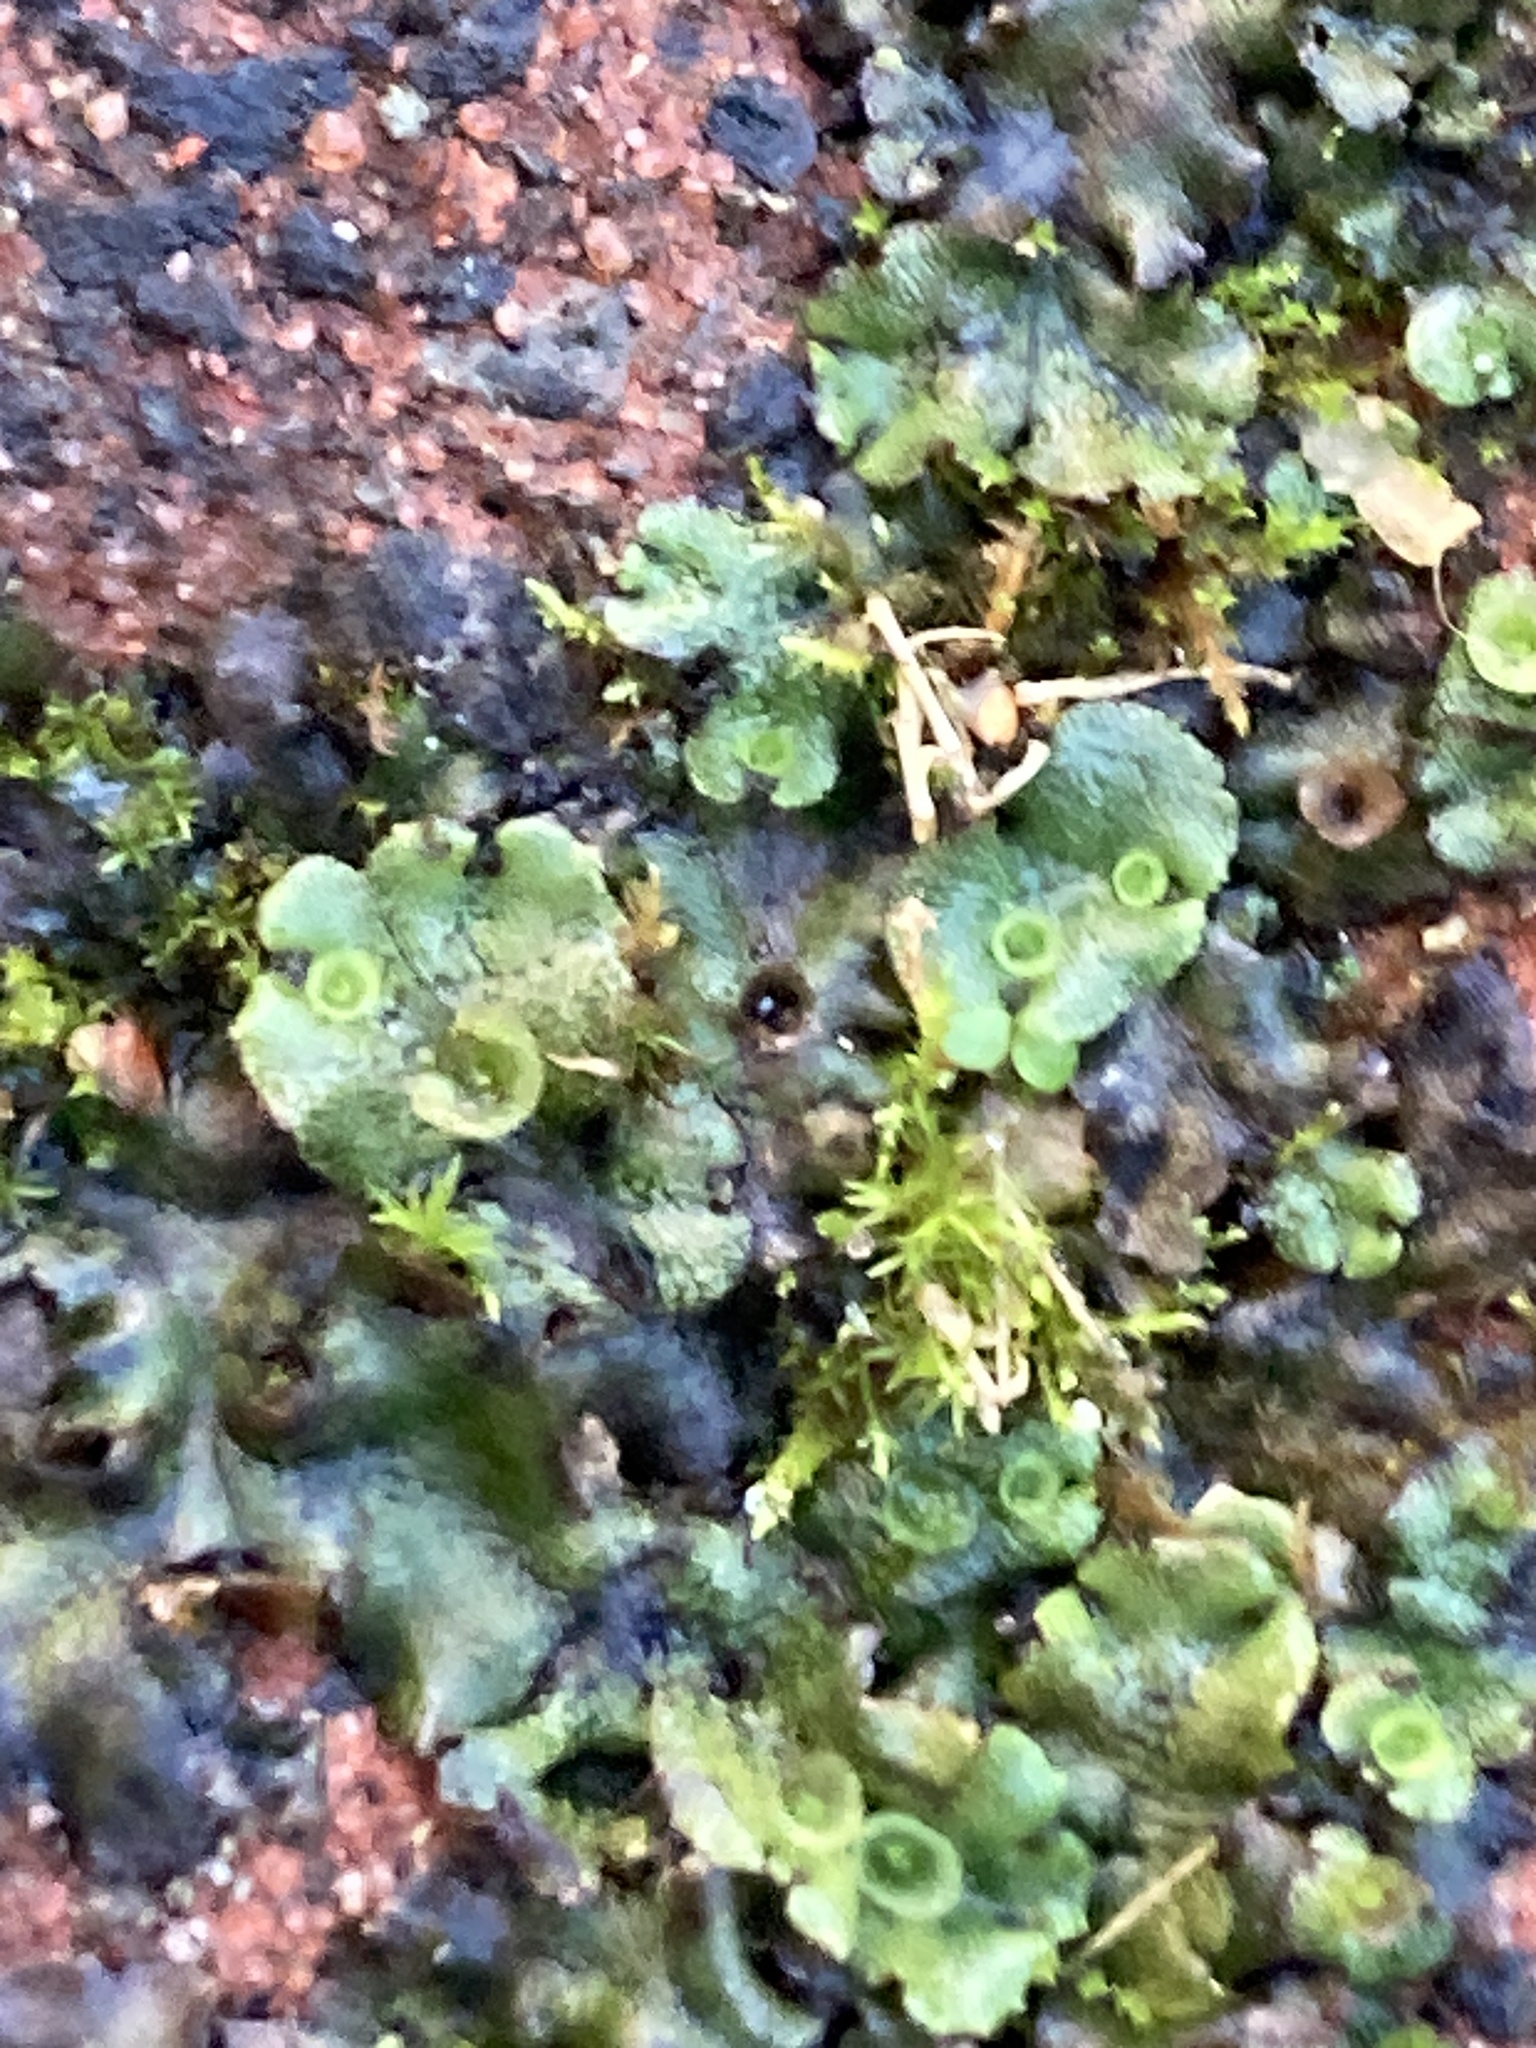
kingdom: Plantae
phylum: Marchantiophyta
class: Marchantiopsida
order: Marchantiales
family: Marchantiaceae
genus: Marchantia
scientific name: Marchantia polymorpha
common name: Common liverwort
